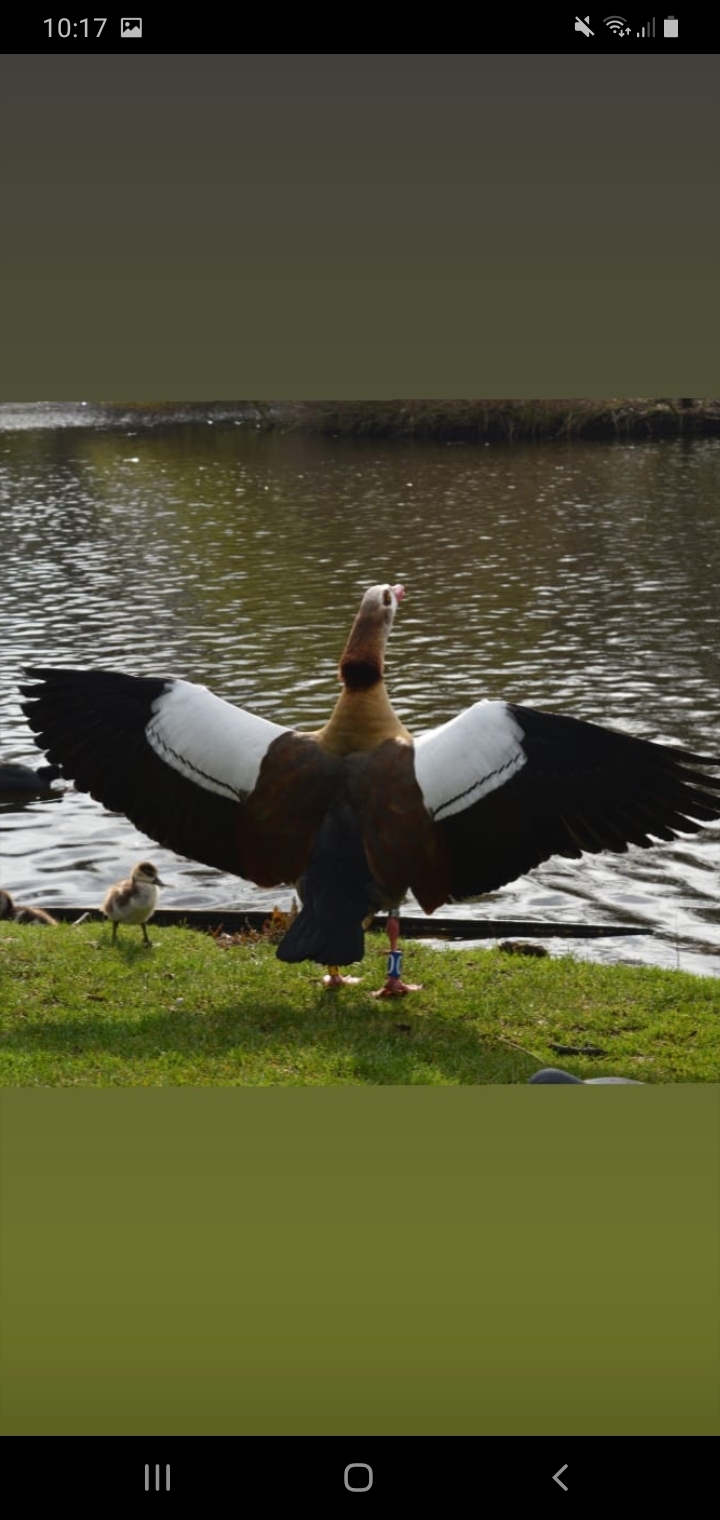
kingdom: Animalia
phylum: Chordata
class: Aves
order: Anseriformes
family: Anatidae
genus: Alopochen
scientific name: Alopochen aegyptiaca
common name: Egyptian goose
